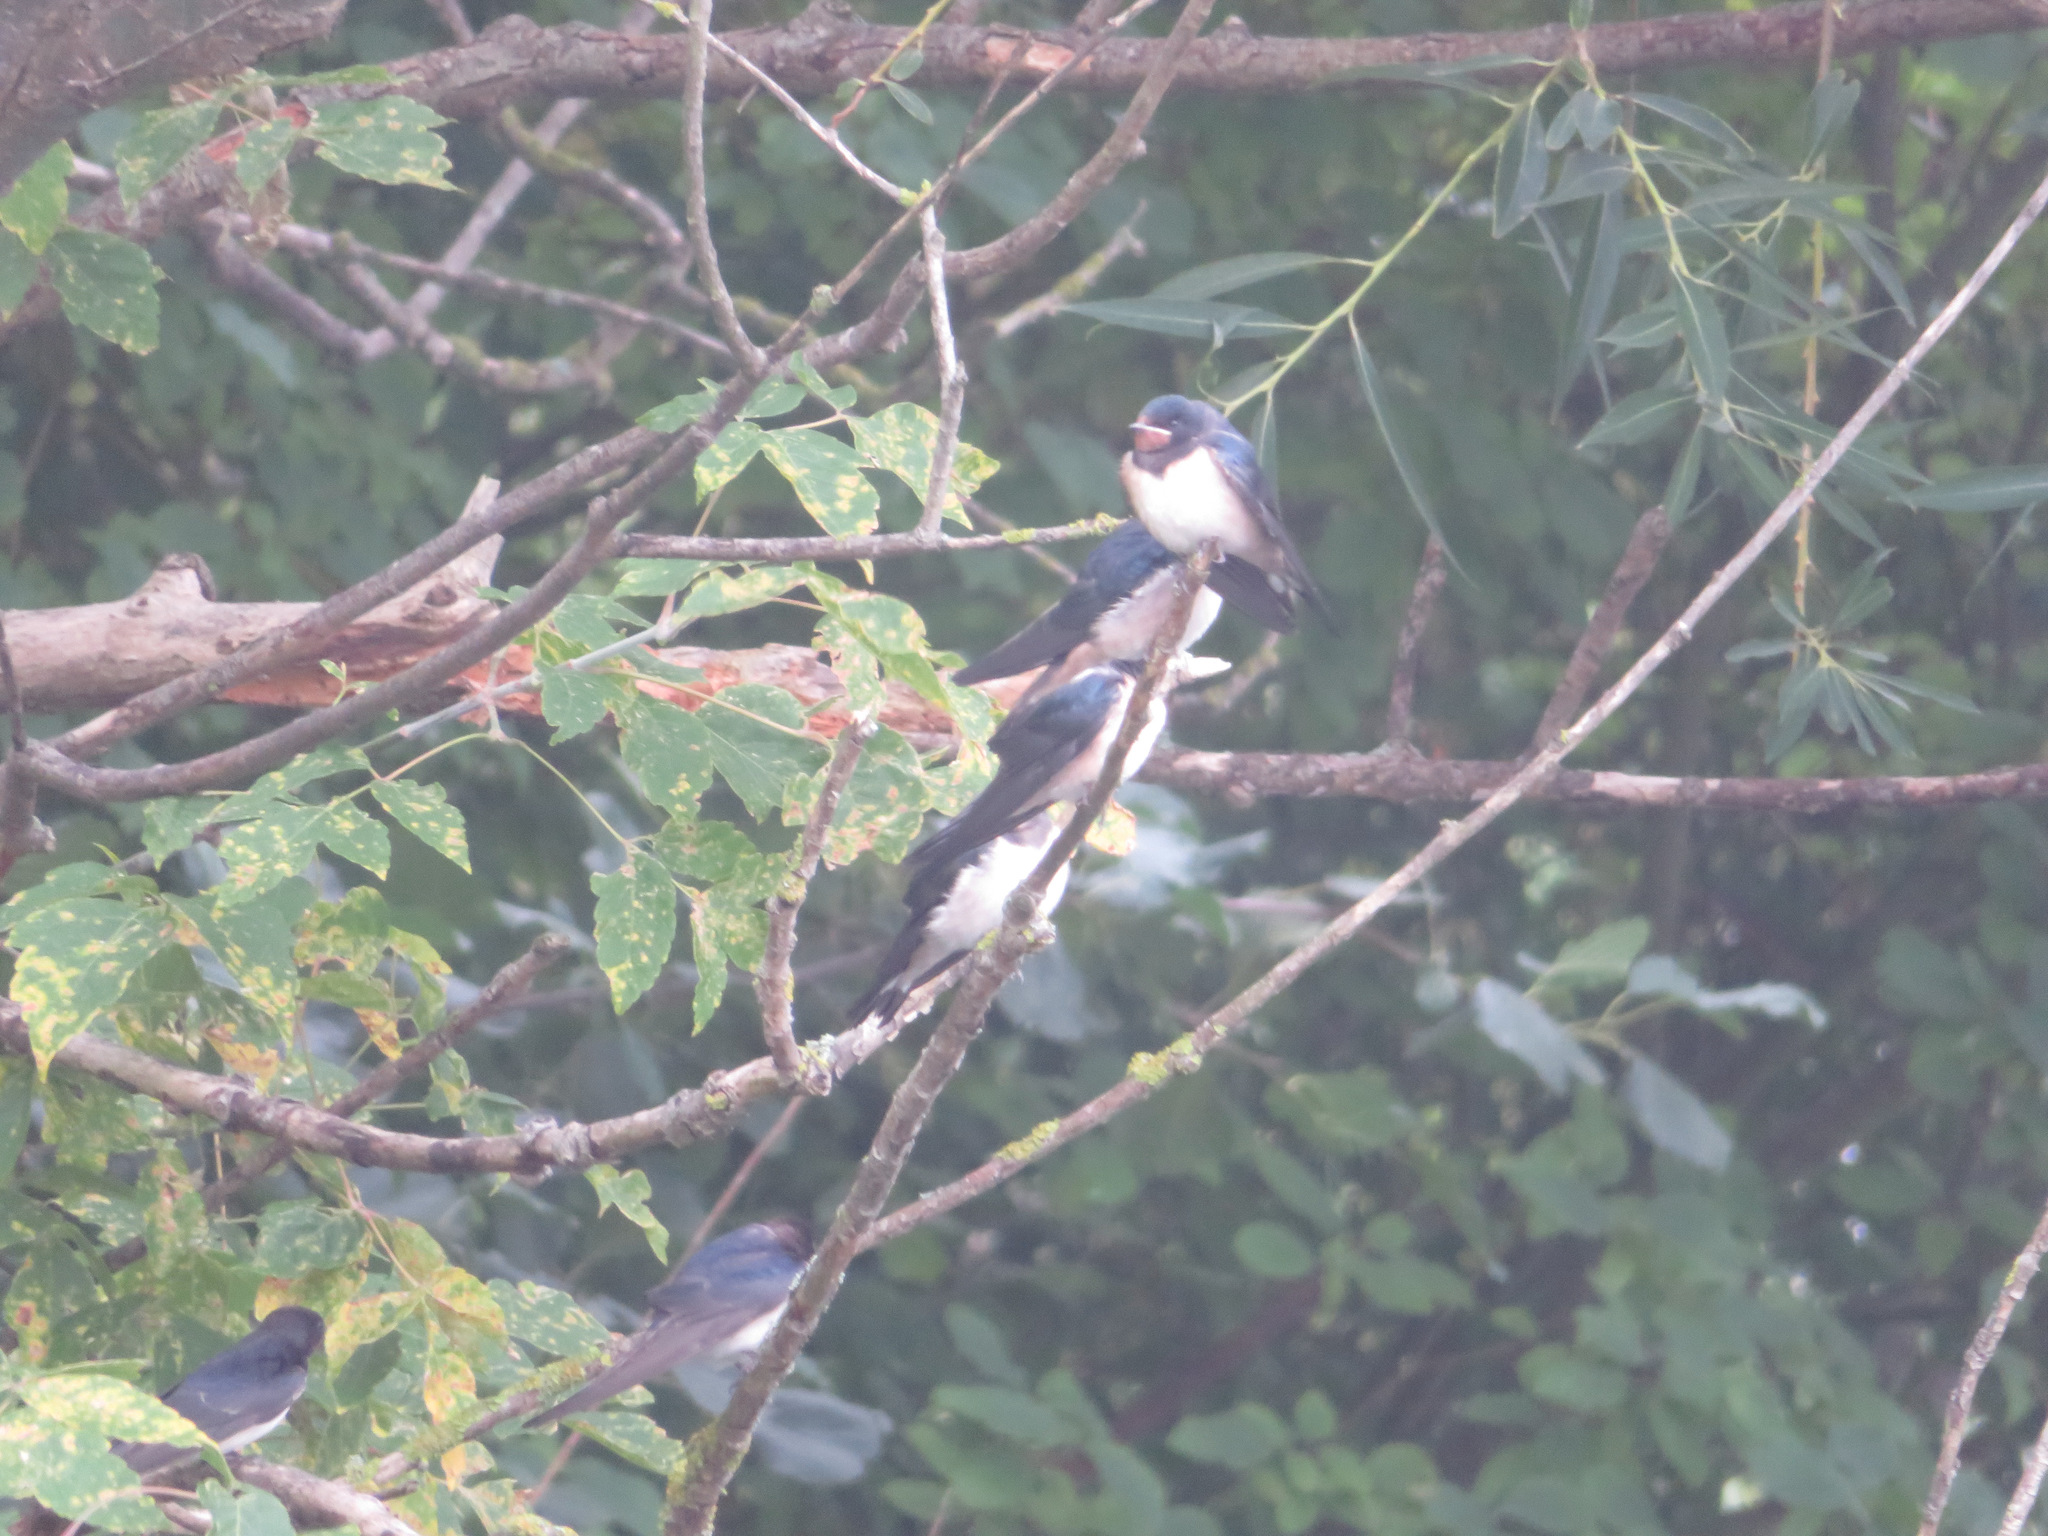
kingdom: Animalia
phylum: Chordata
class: Aves
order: Passeriformes
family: Hirundinidae
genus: Hirundo
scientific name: Hirundo rustica
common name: Barn swallow
